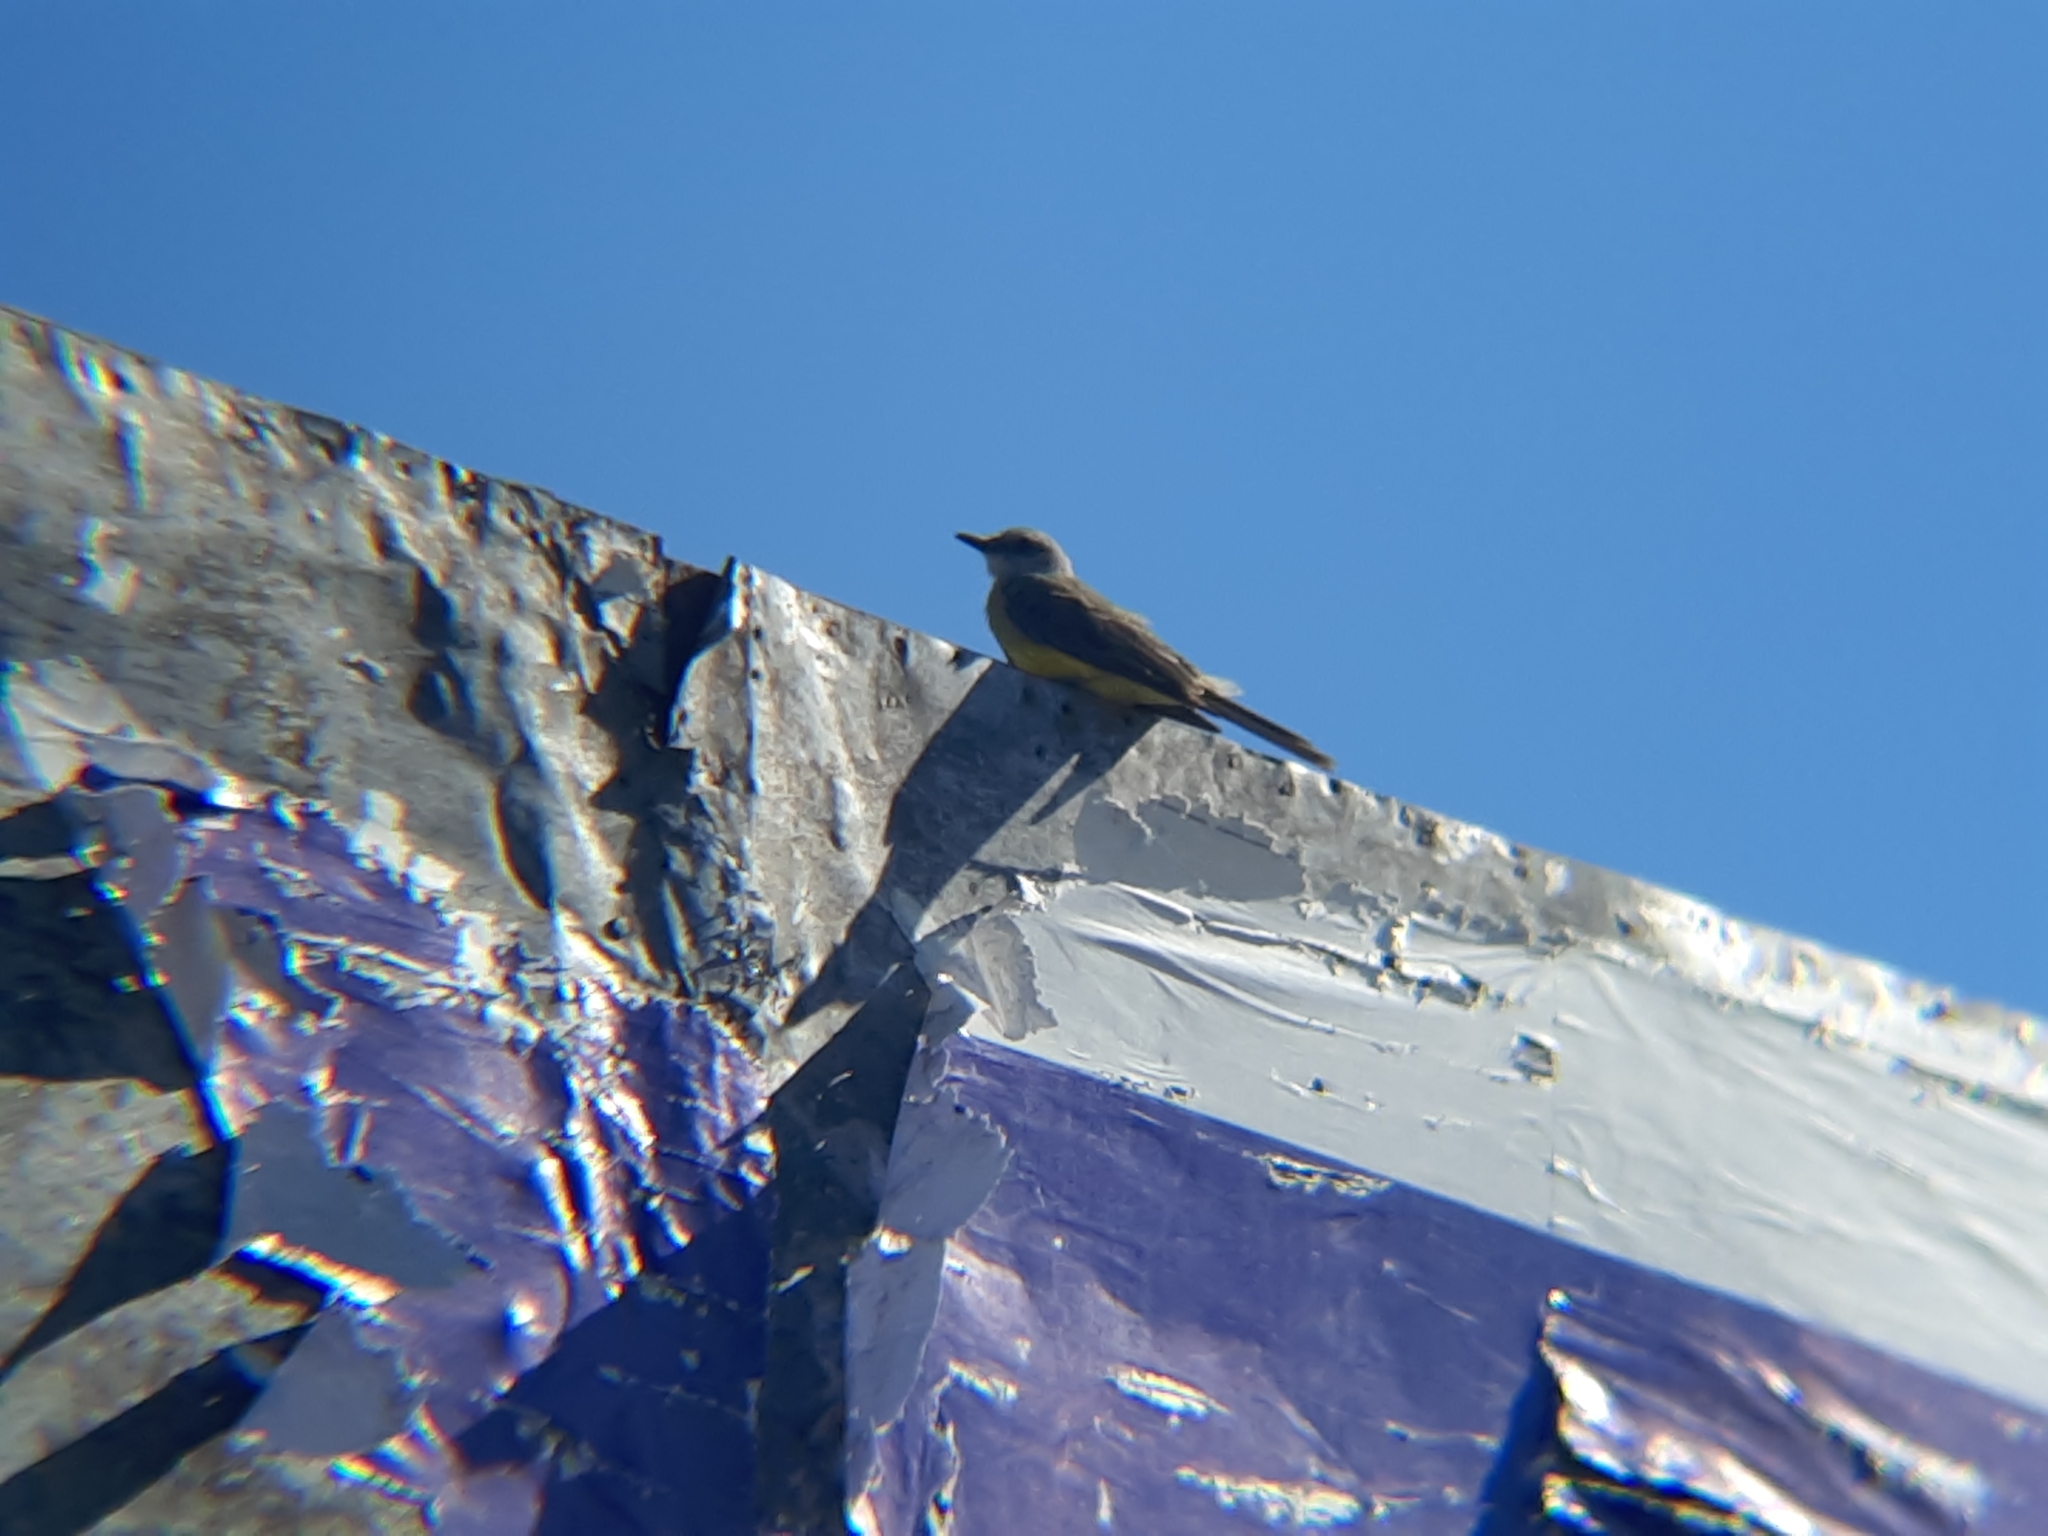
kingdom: Animalia
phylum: Chordata
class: Aves
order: Passeriformes
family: Tyrannidae
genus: Tyrannus
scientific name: Tyrannus melancholicus
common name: Tropical kingbird
